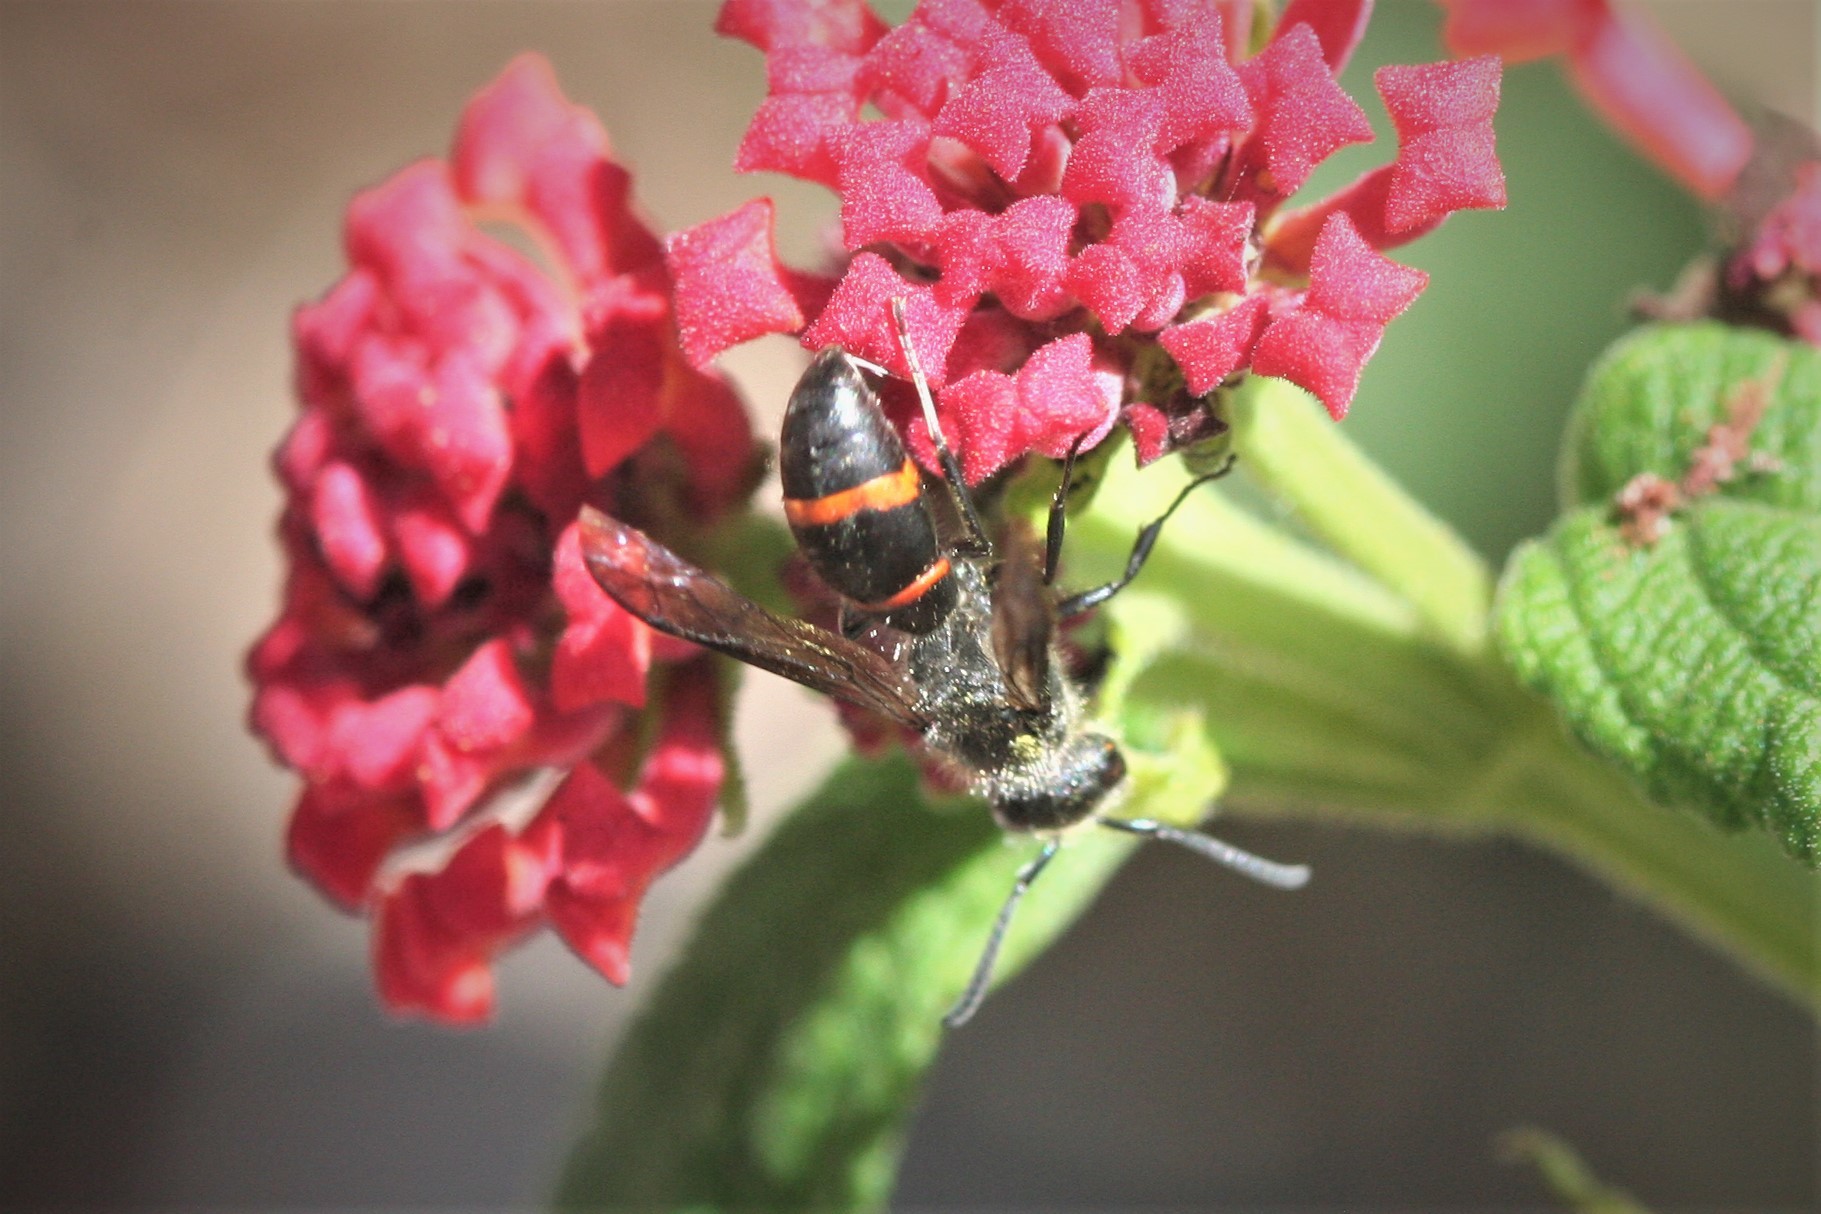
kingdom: Animalia
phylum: Arthropoda
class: Insecta
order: Hymenoptera
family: Vespidae
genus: Ancistrocerus
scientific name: Ancistrocerus madaera
